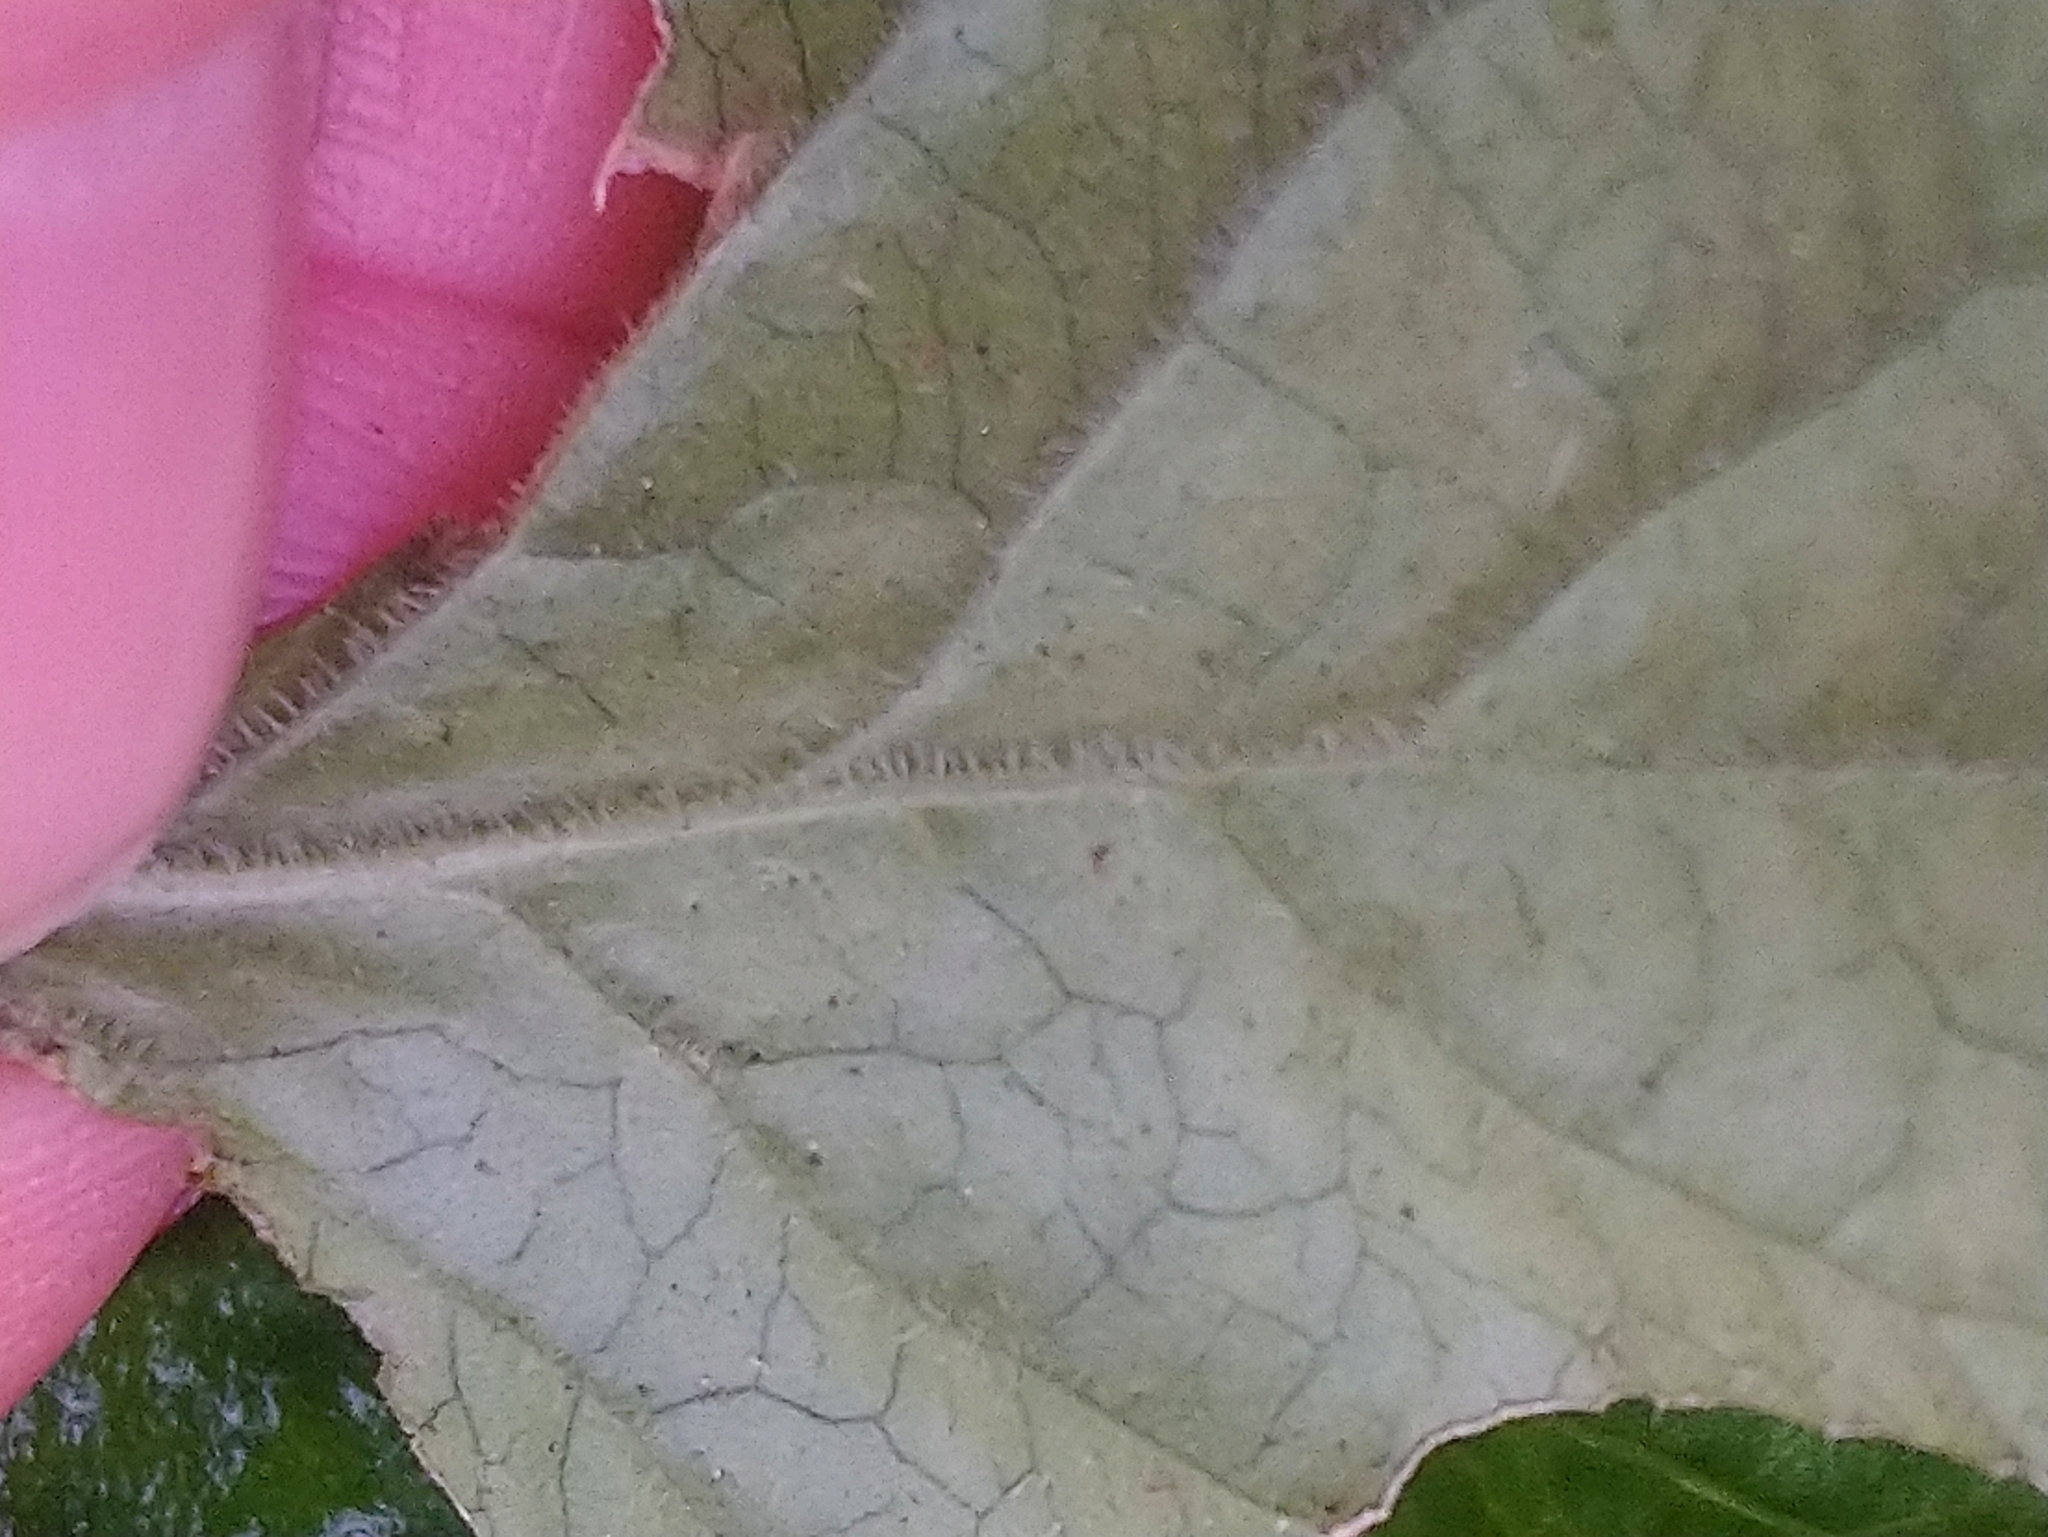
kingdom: Plantae
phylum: Tracheophyta
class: Magnoliopsida
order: Malpighiales
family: Violaceae
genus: Viola
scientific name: Viola odorata
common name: Sweet violet
